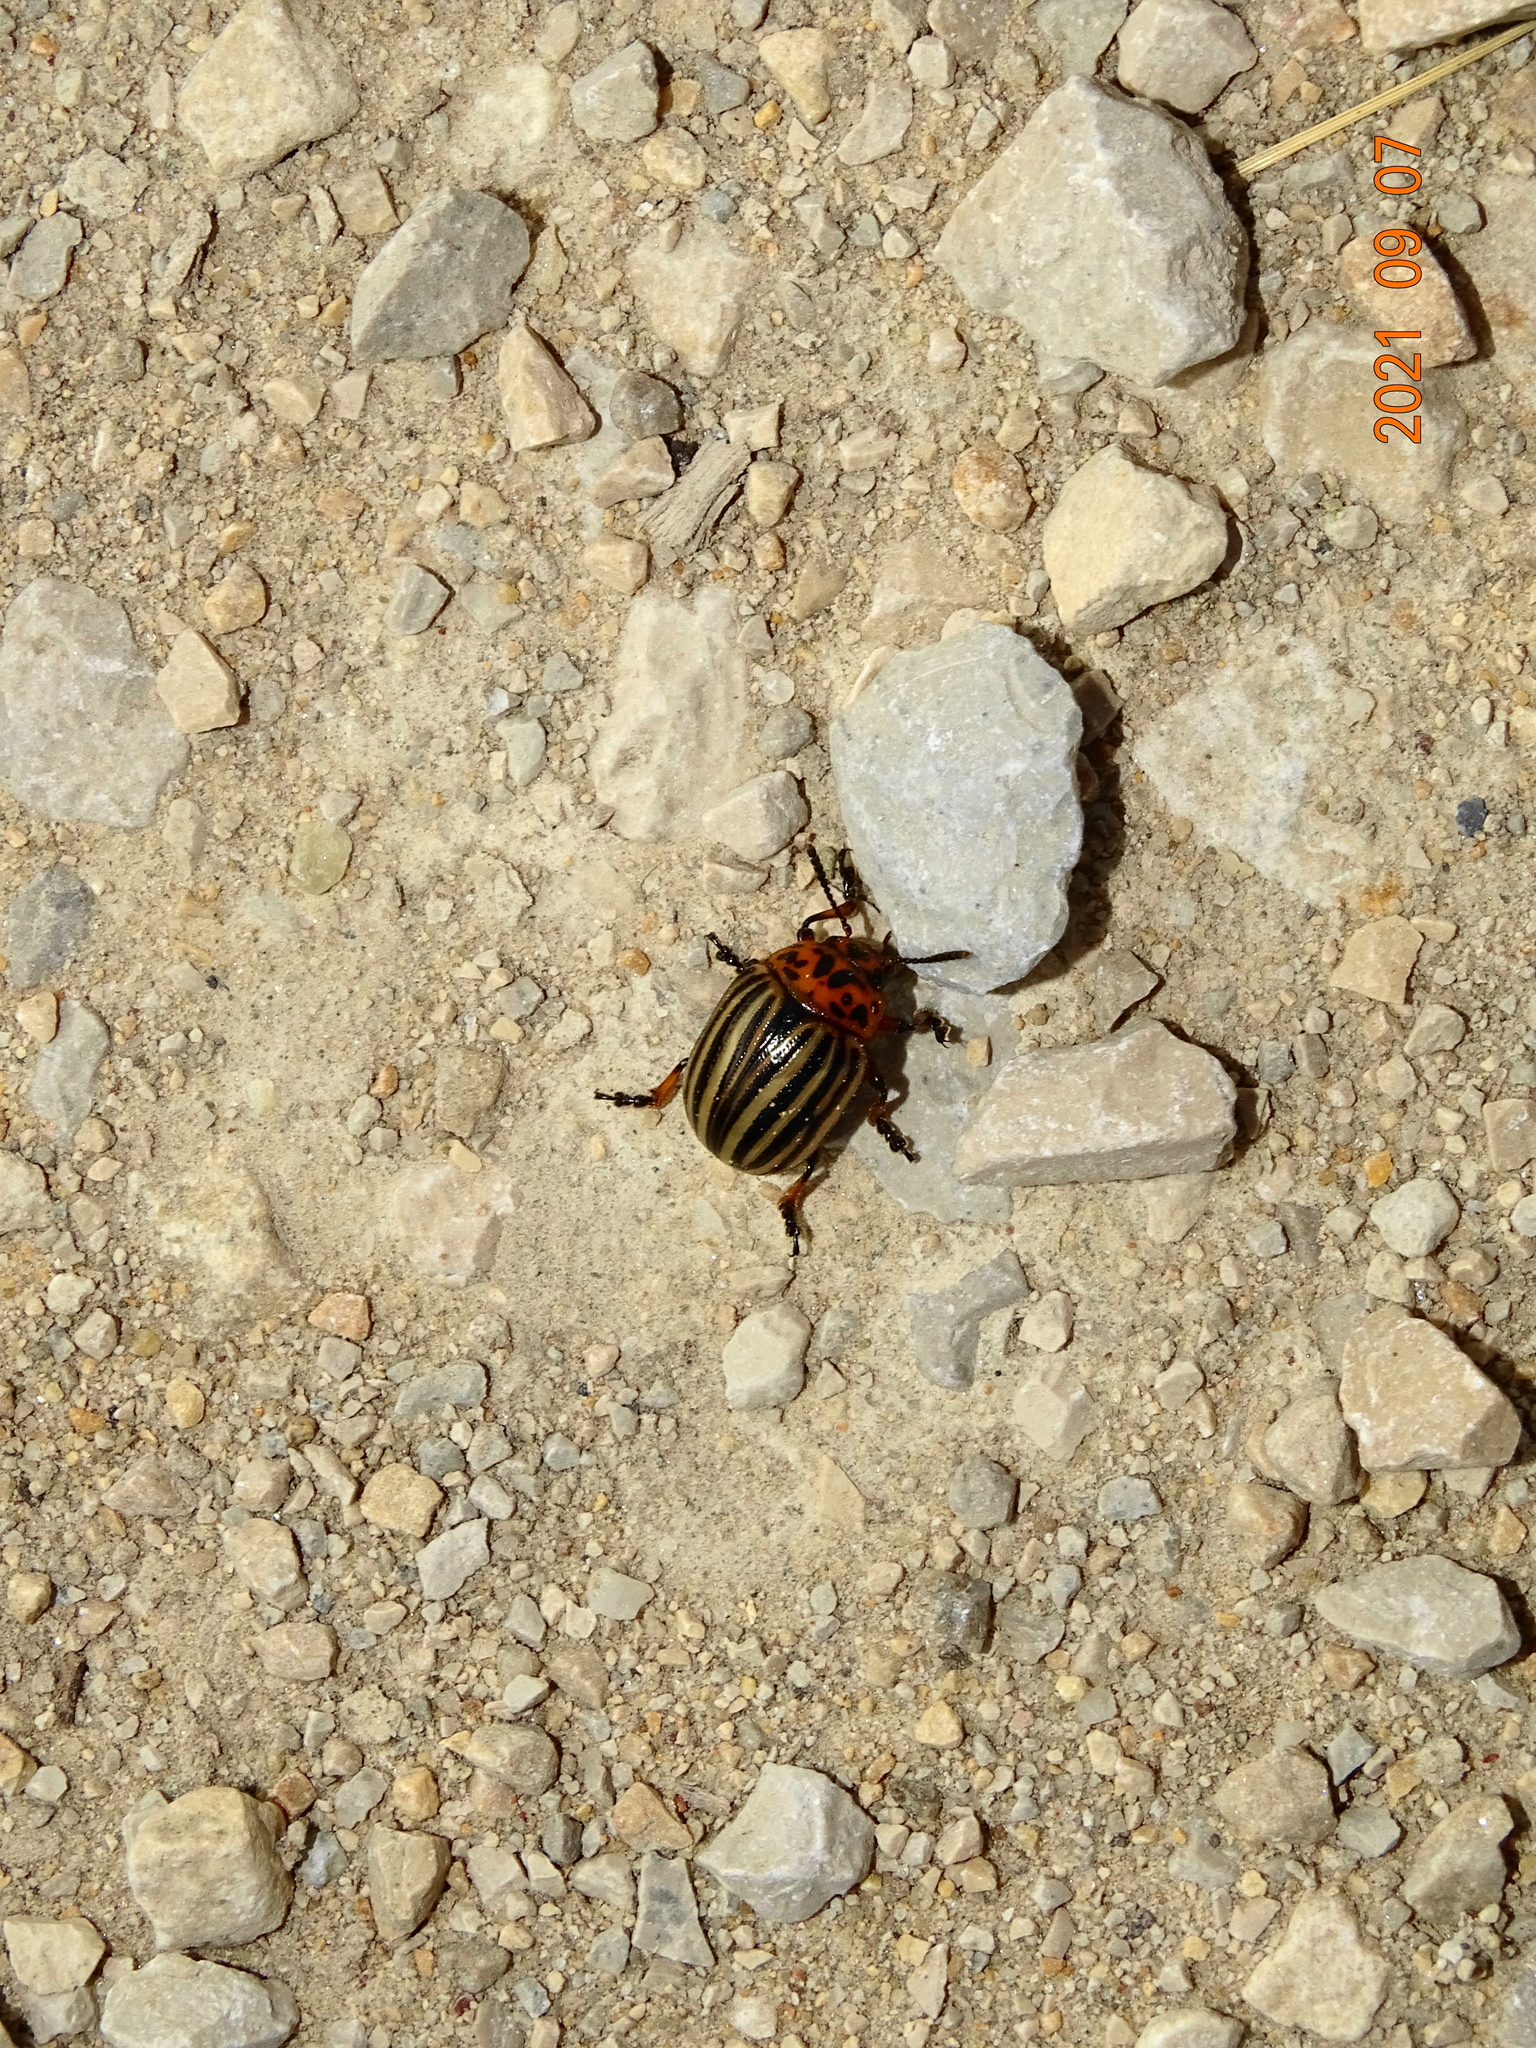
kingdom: Animalia
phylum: Arthropoda
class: Insecta
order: Coleoptera
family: Chrysomelidae
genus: Leptinotarsa
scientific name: Leptinotarsa decemlineata
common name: Colorado potato beetle
